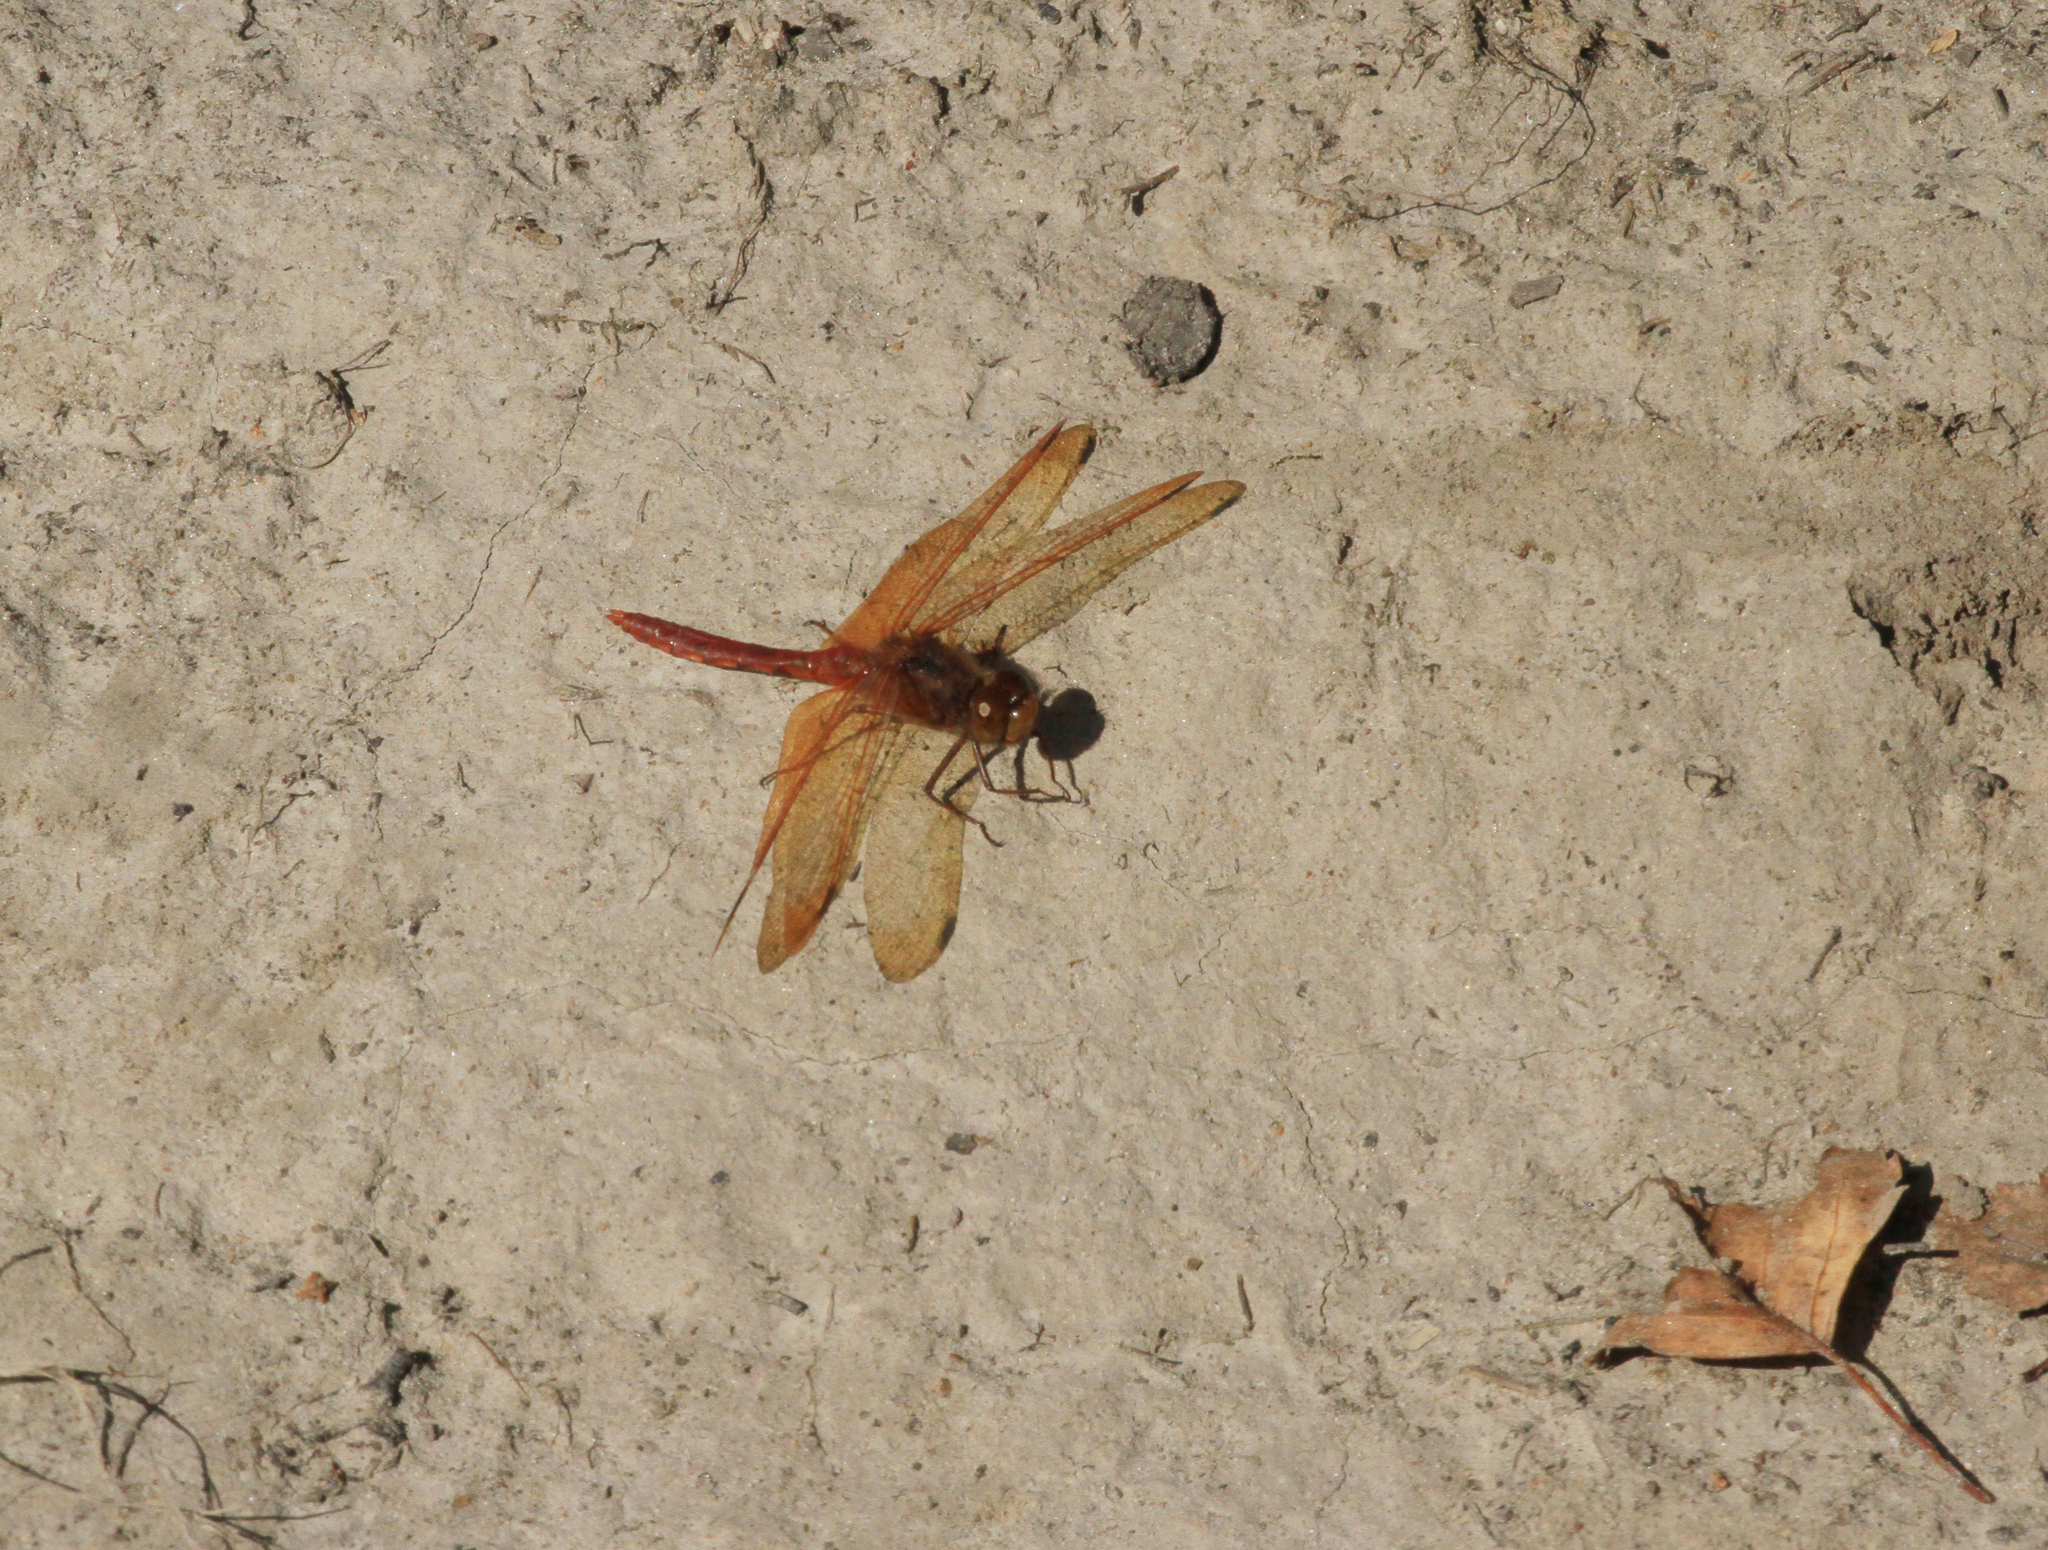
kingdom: Animalia
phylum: Arthropoda
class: Insecta
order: Odonata
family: Libellulidae
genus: Sympetrum
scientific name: Sympetrum croceolum
